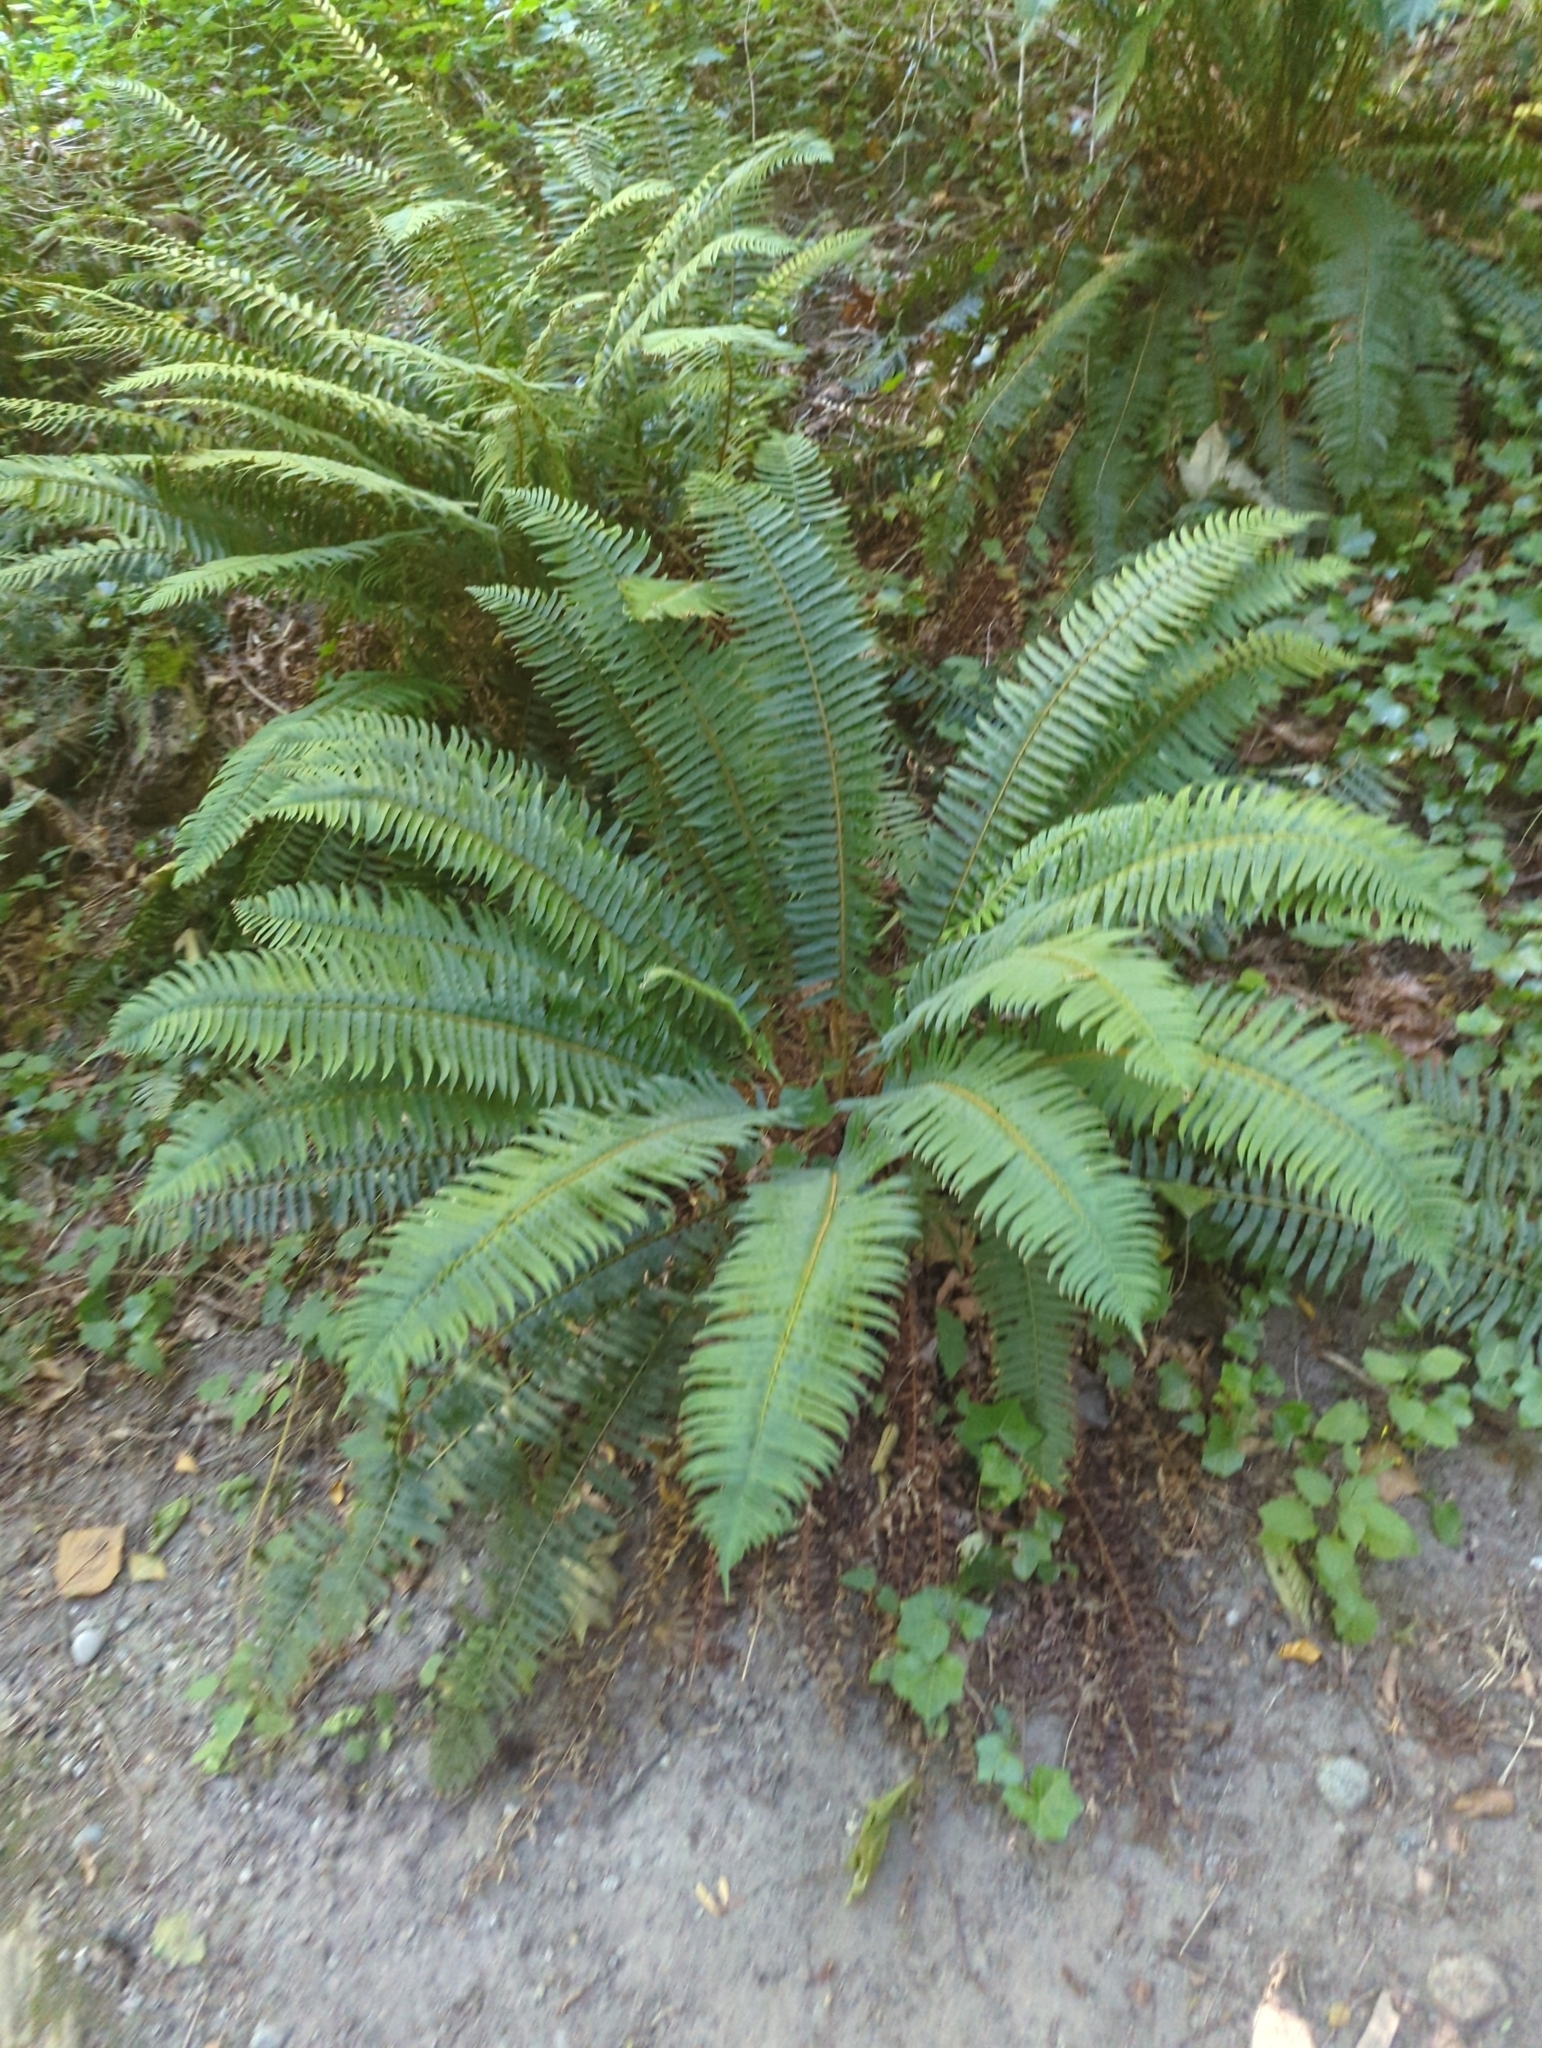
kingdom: Plantae
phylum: Tracheophyta
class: Polypodiopsida
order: Polypodiales
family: Dryopteridaceae
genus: Polystichum
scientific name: Polystichum munitum
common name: Western sword-fern
